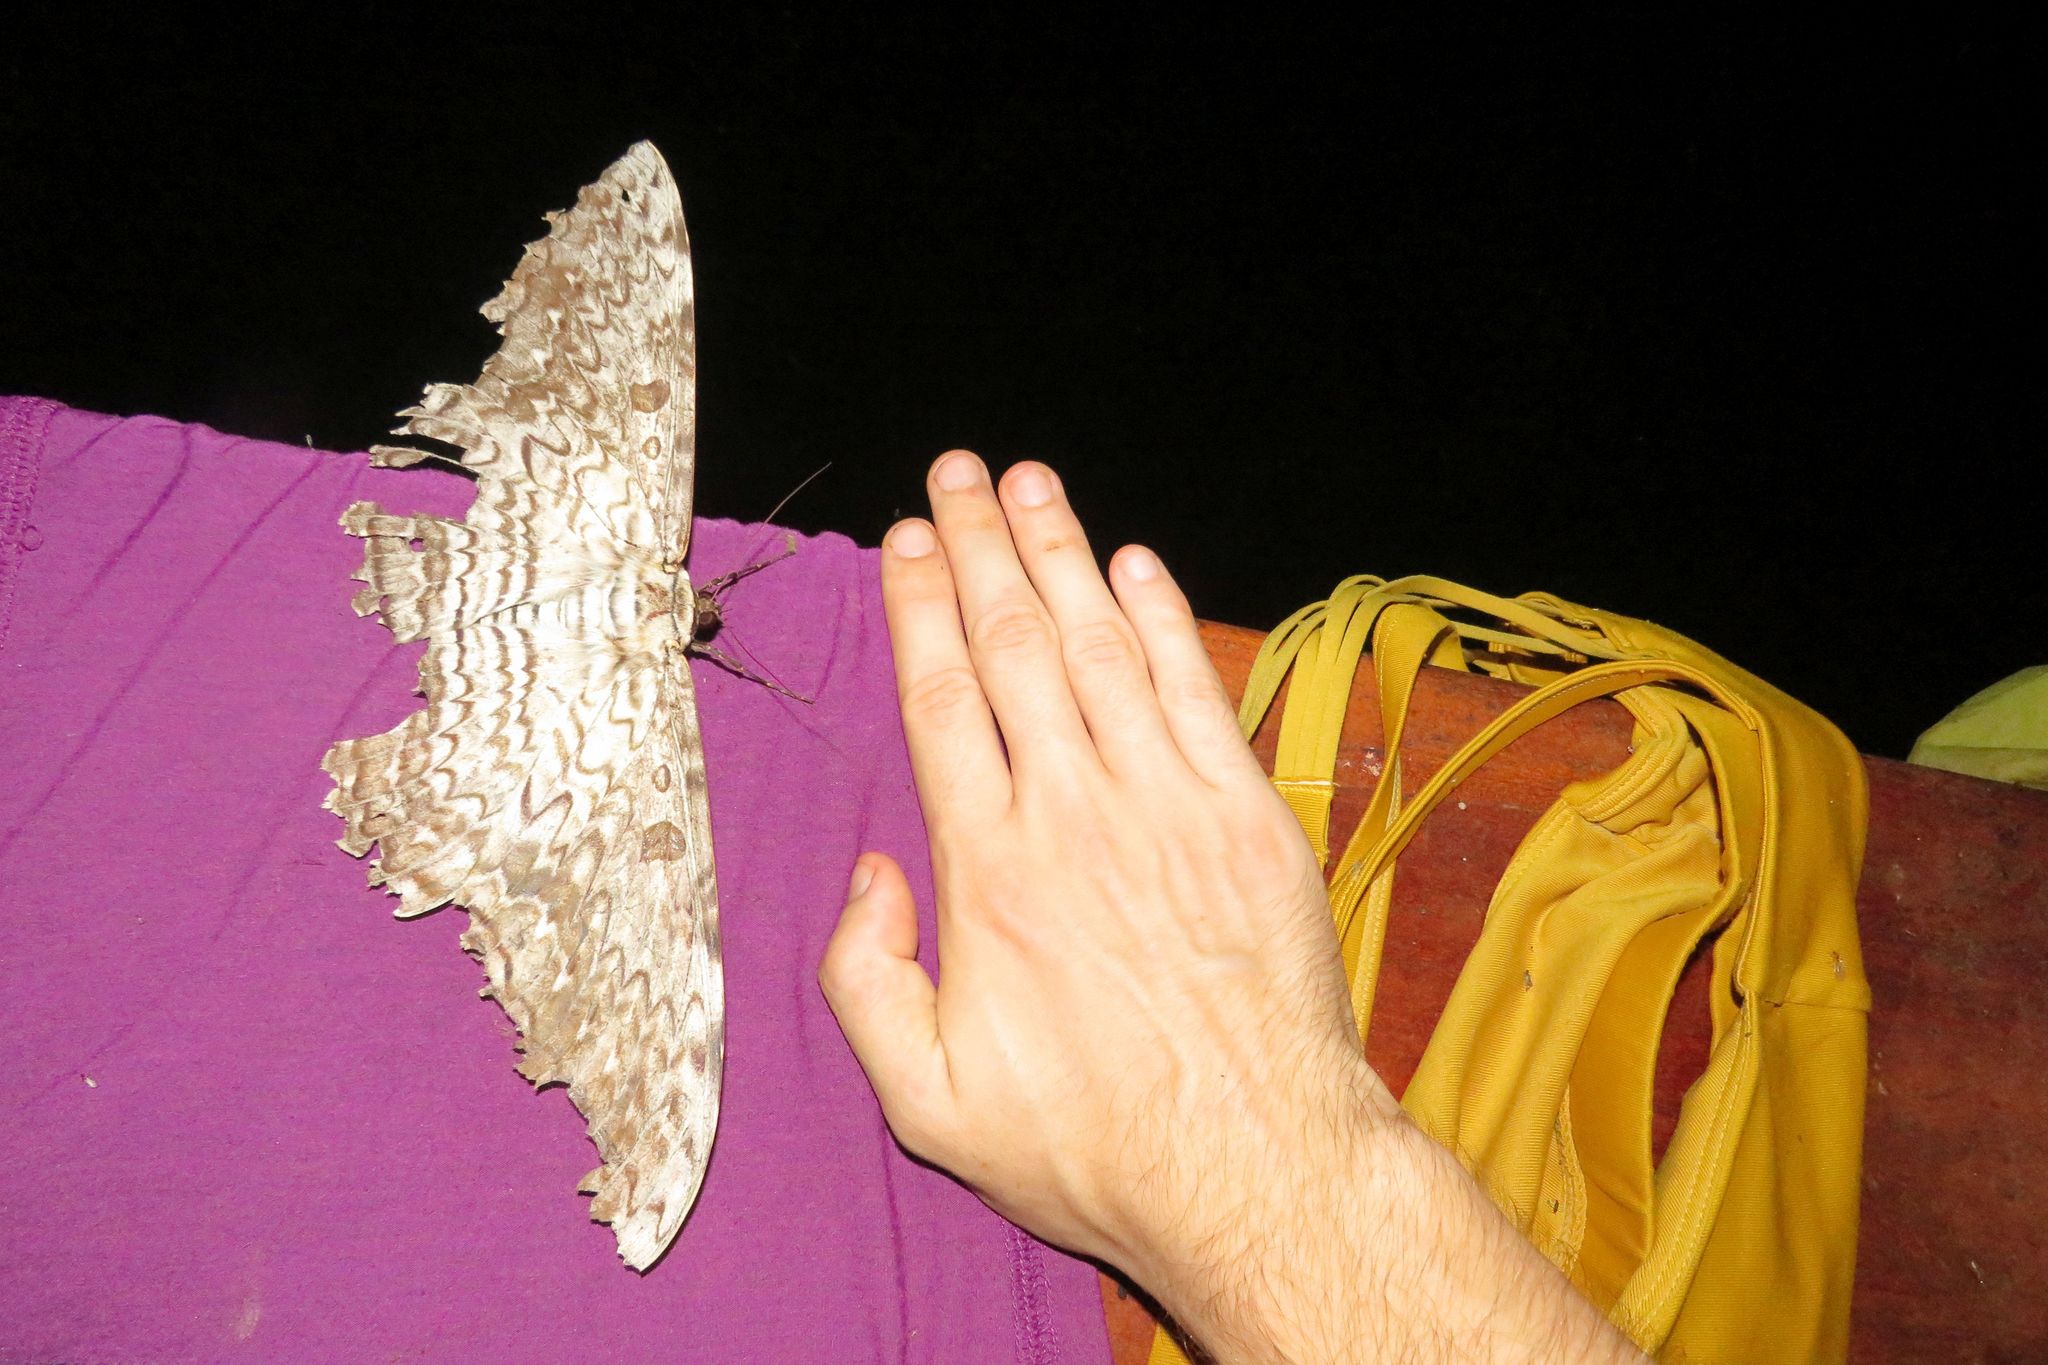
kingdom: Animalia
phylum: Arthropoda
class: Insecta
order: Lepidoptera
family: Erebidae
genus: Thysania
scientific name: Thysania agrippina
